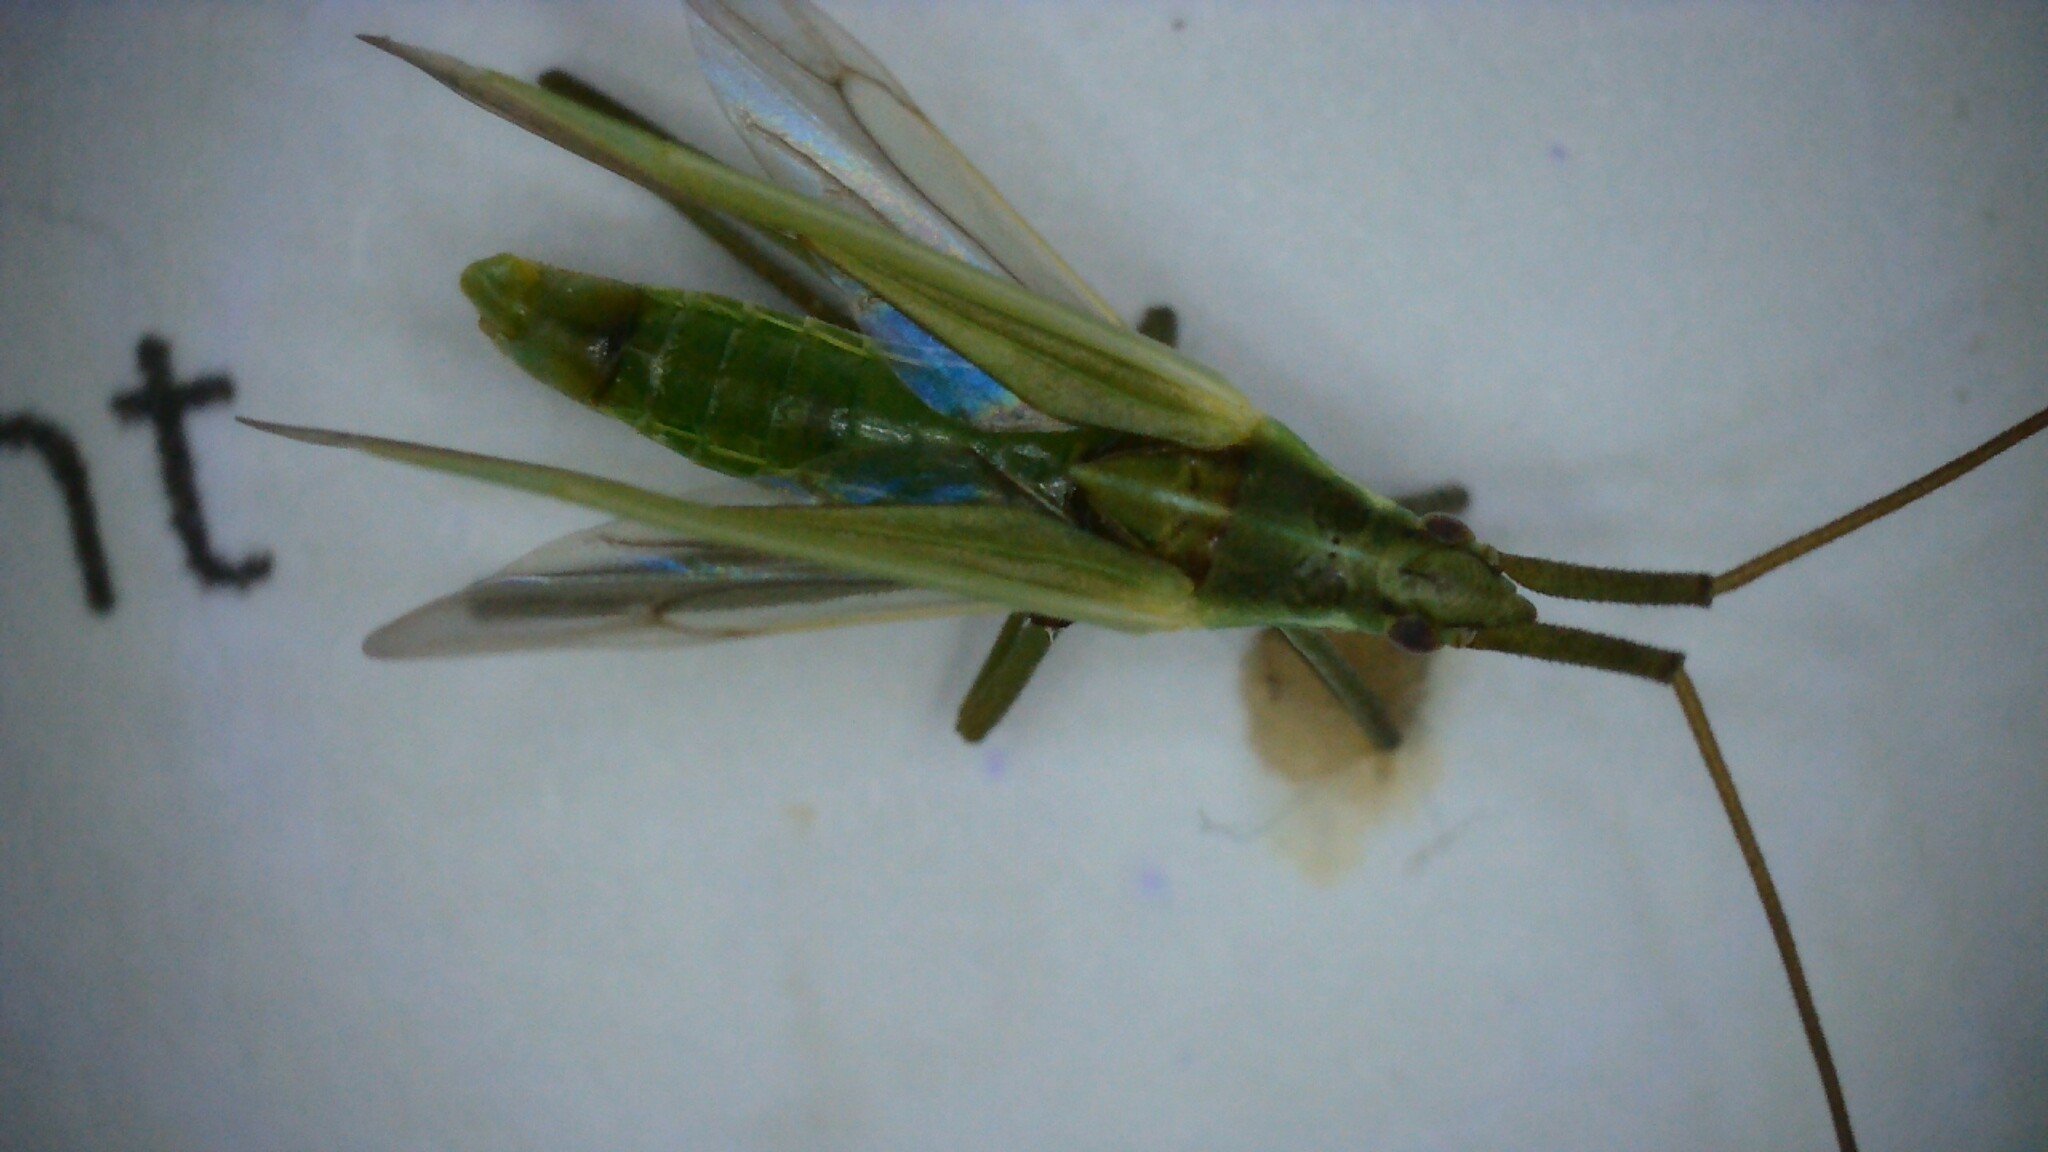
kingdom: Animalia
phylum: Arthropoda
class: Insecta
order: Hemiptera
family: Miridae
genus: Megaloceroea
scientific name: Megaloceroea recticornis
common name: Plant bug
